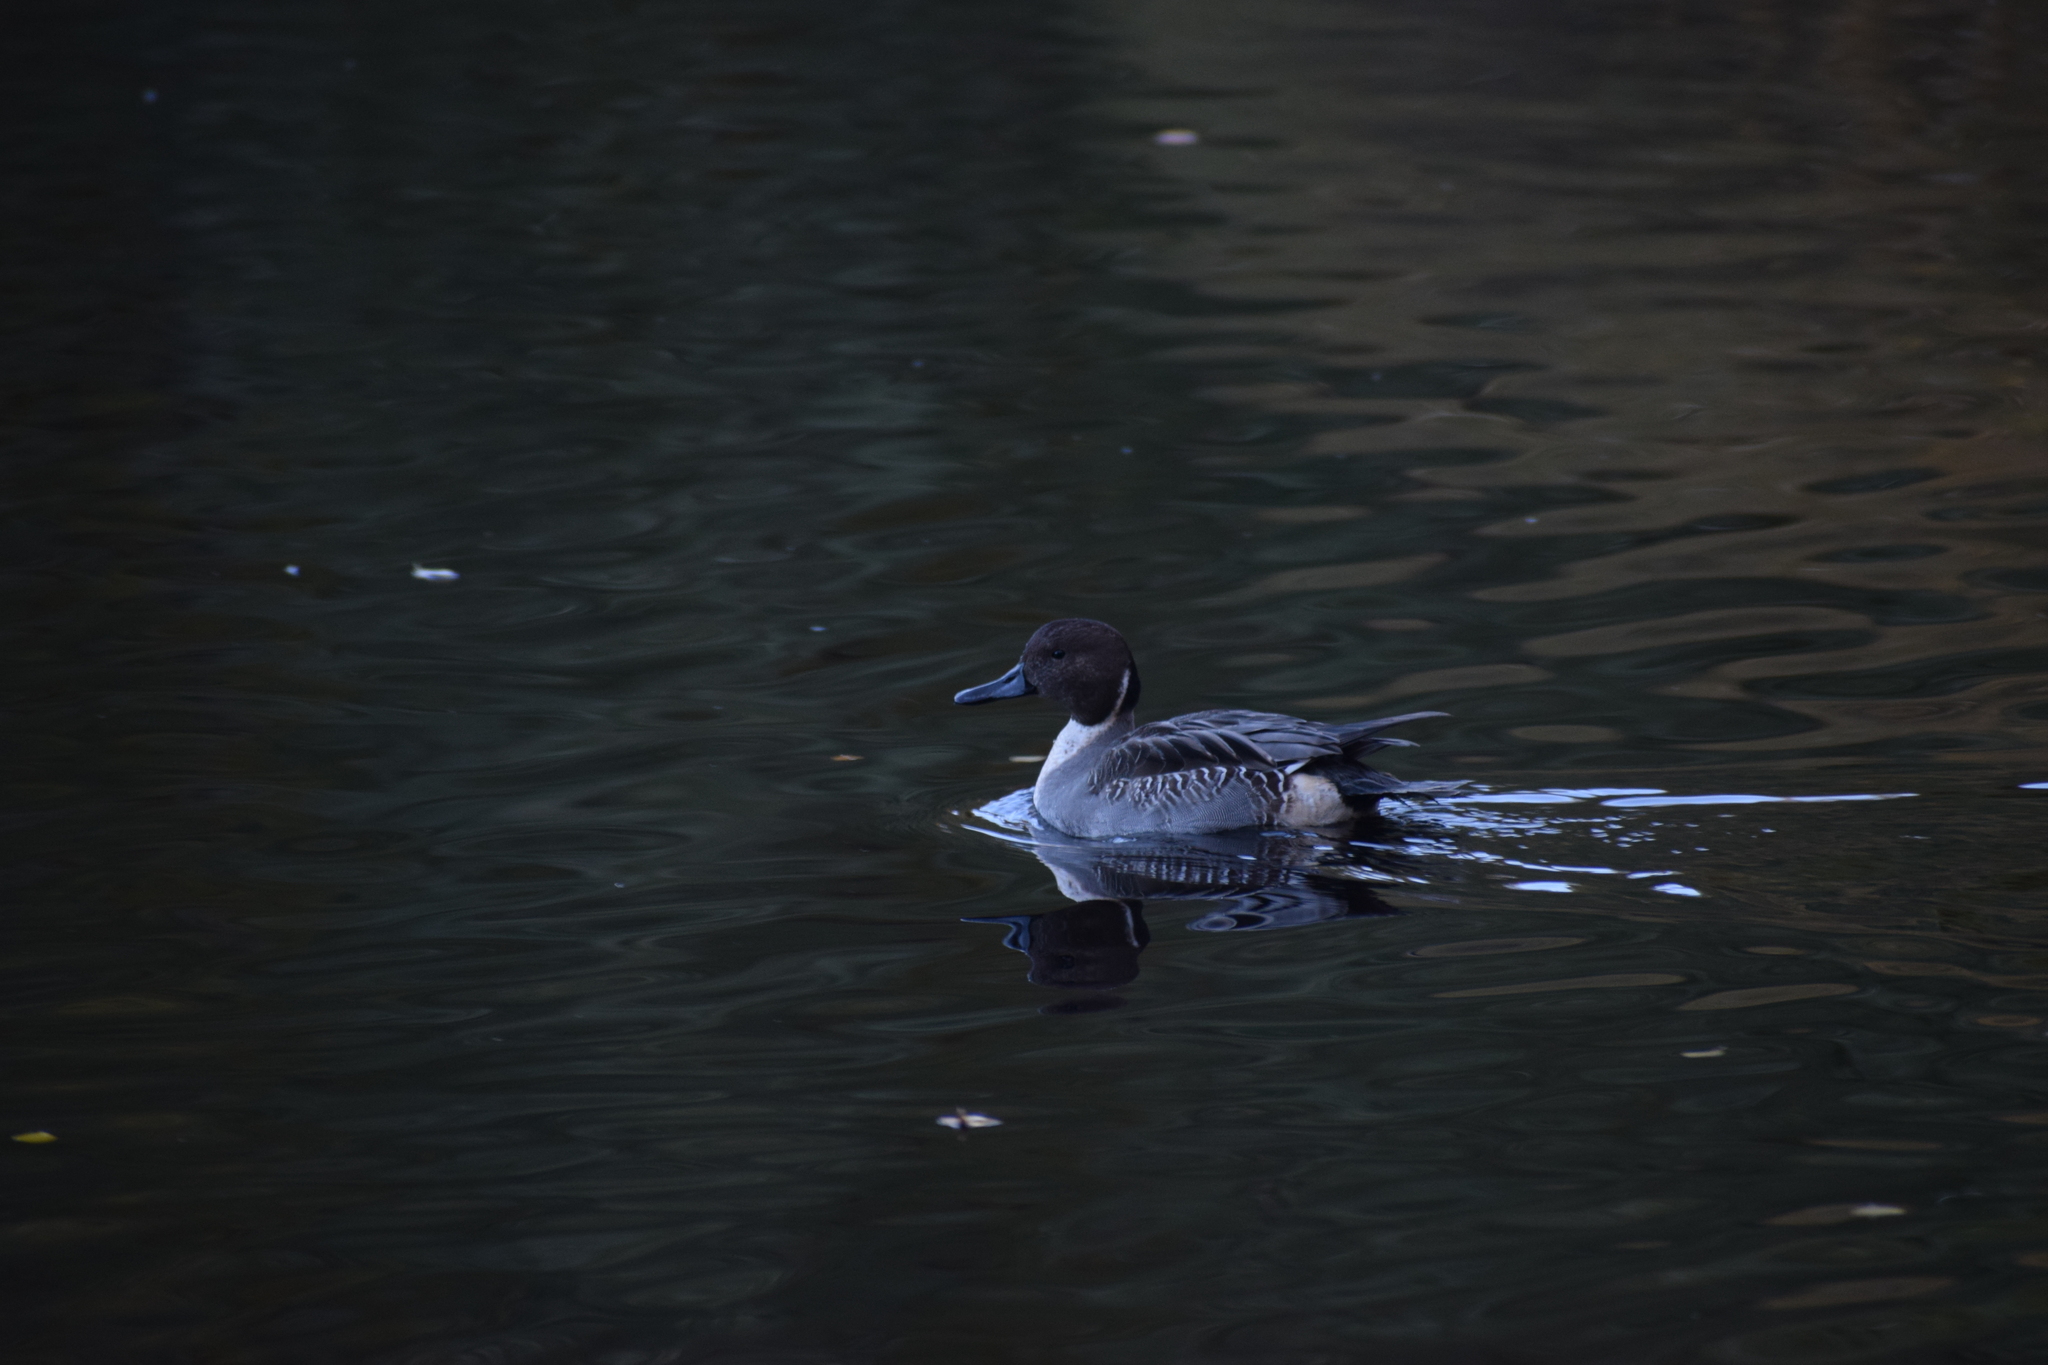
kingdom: Animalia
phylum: Chordata
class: Aves
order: Anseriformes
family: Anatidae
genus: Anas
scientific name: Anas acuta
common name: Northern pintail
